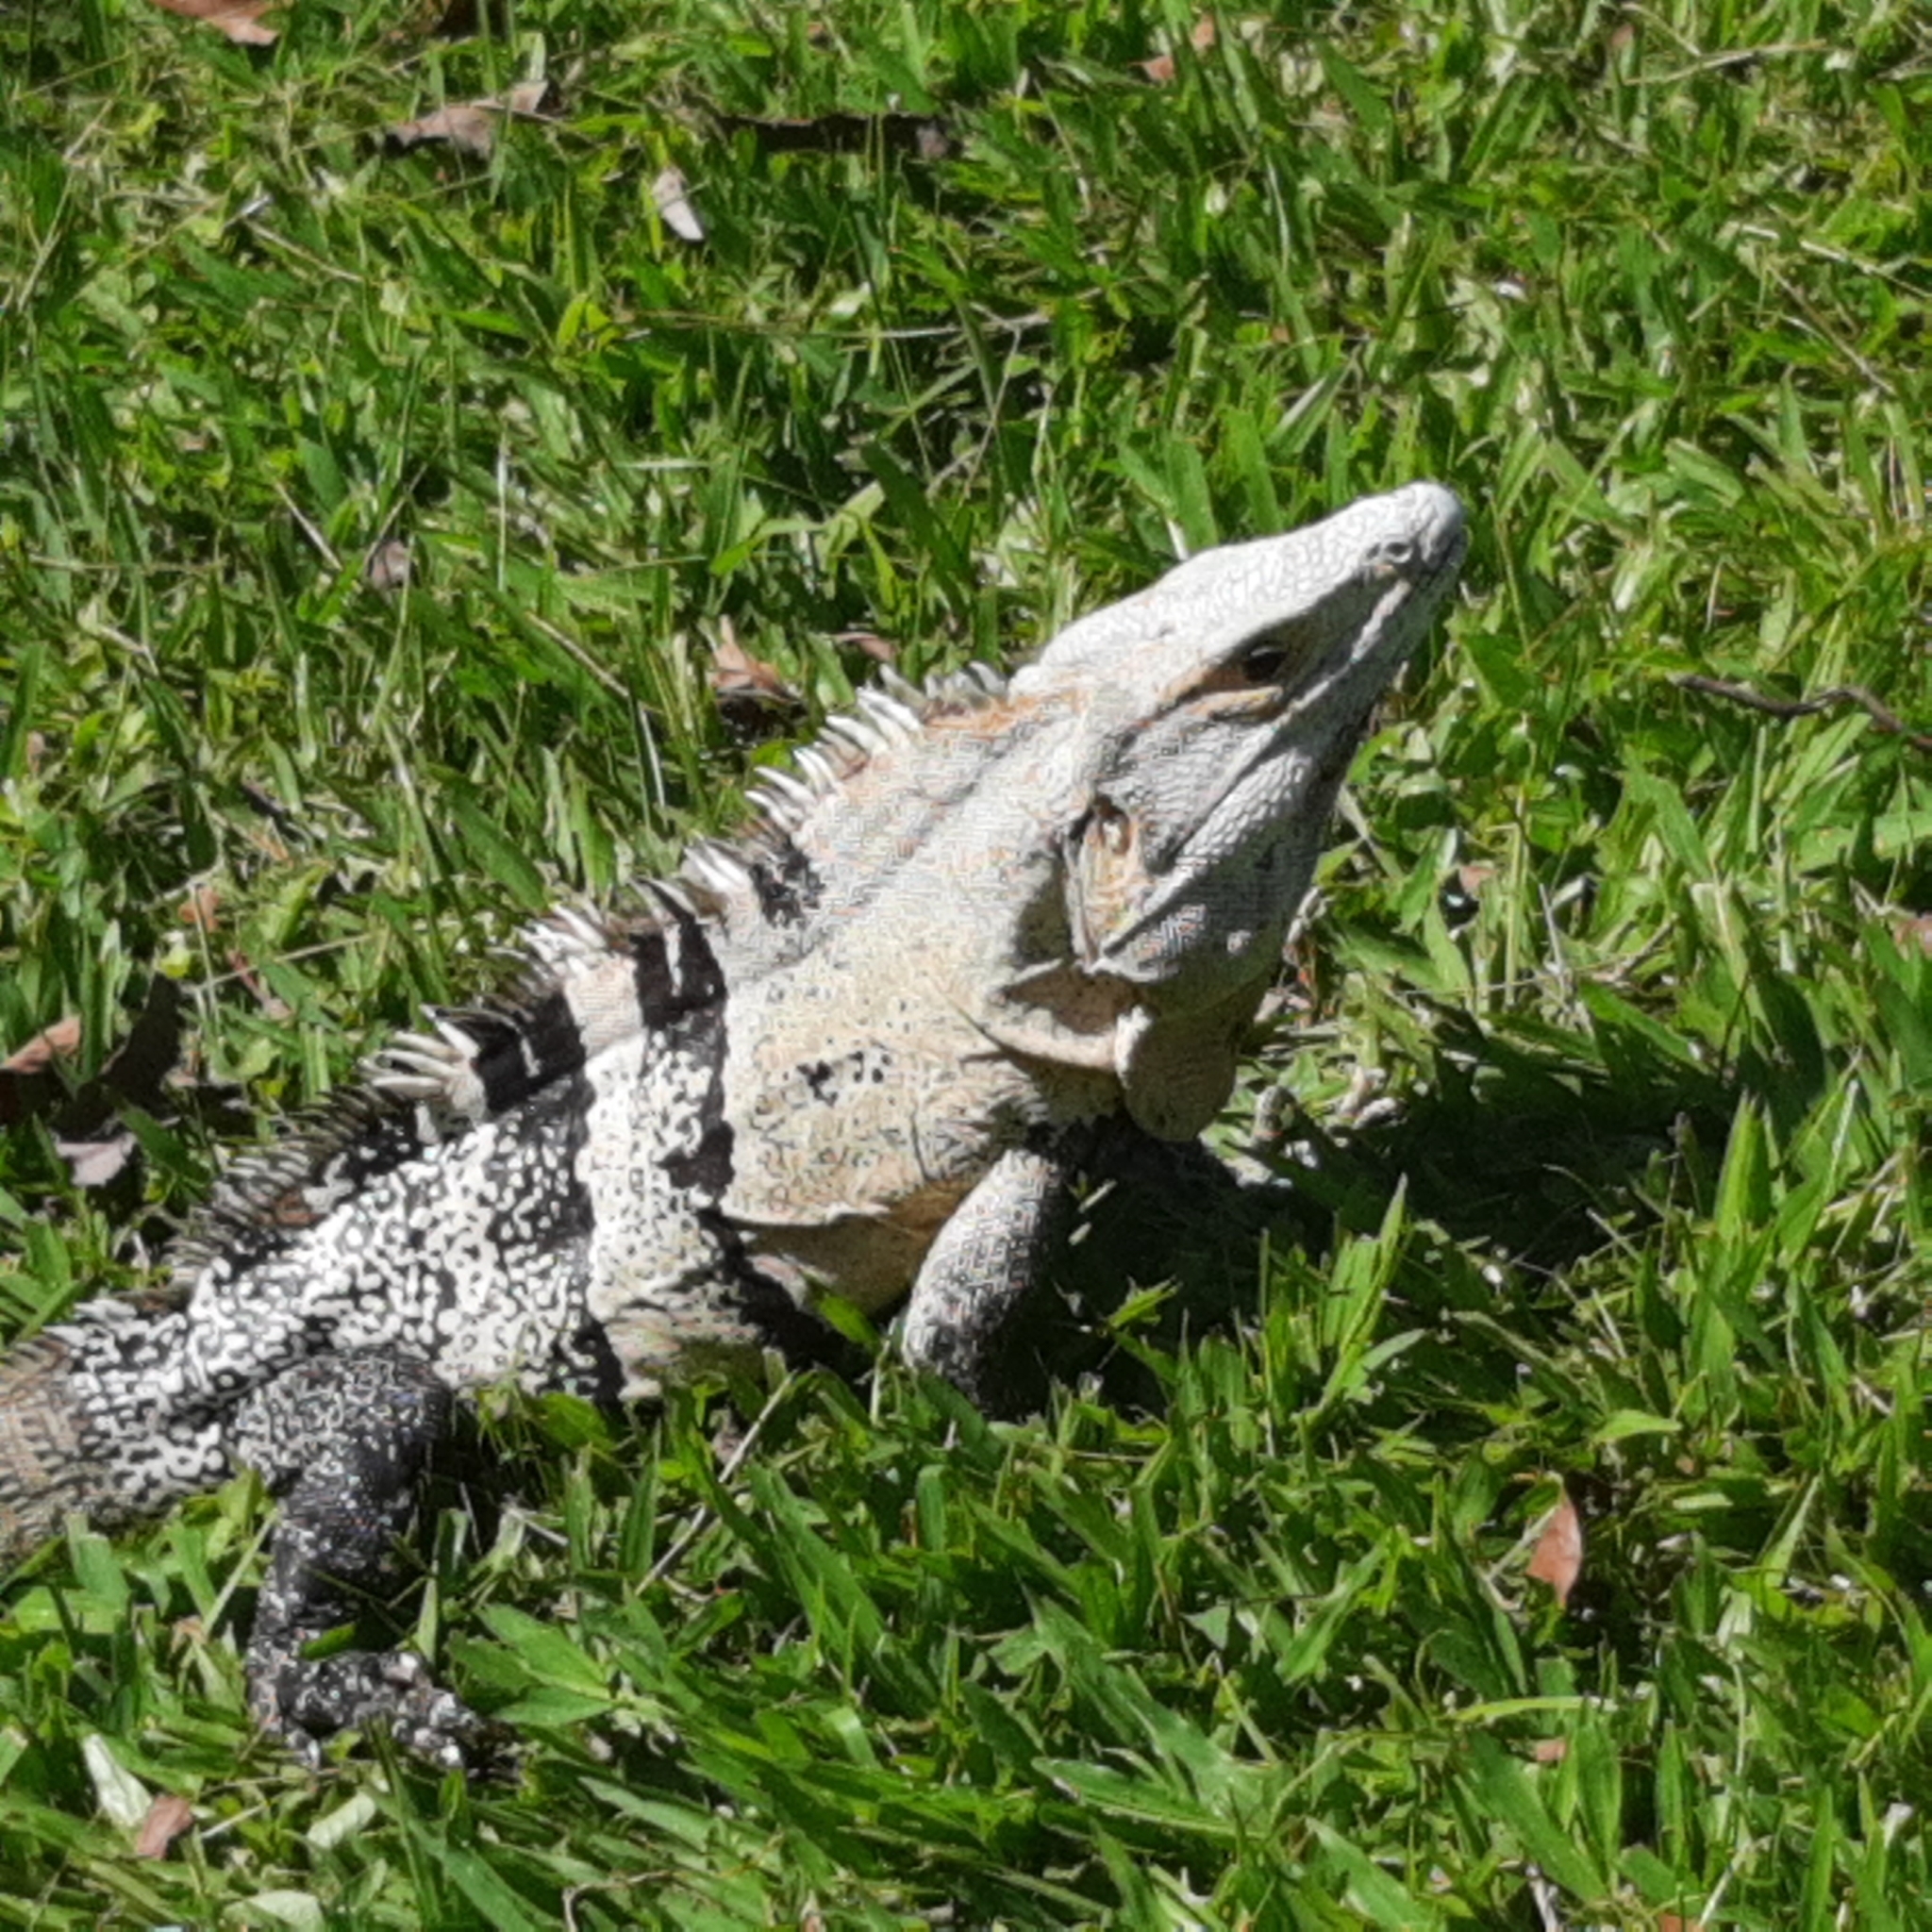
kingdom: Animalia
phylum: Chordata
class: Squamata
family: Iguanidae
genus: Ctenosaura
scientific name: Ctenosaura similis
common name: Black spiny-tailed iguana
